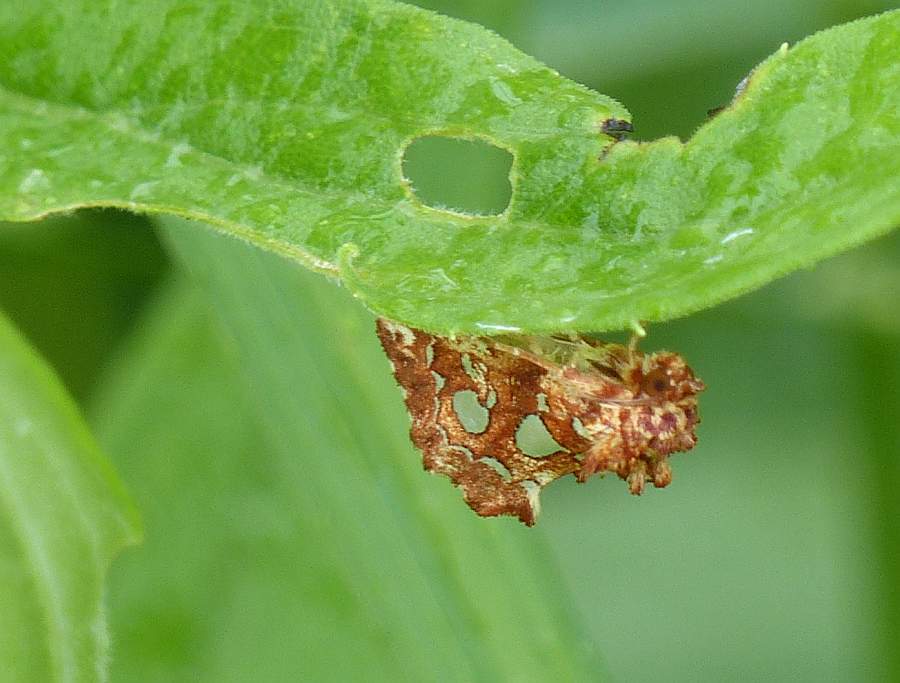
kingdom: Animalia
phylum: Arthropoda
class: Insecta
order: Lepidoptera
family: Noctuidae
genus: Callopistria
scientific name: Callopistria cordata
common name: Silver-spotted fern moth
